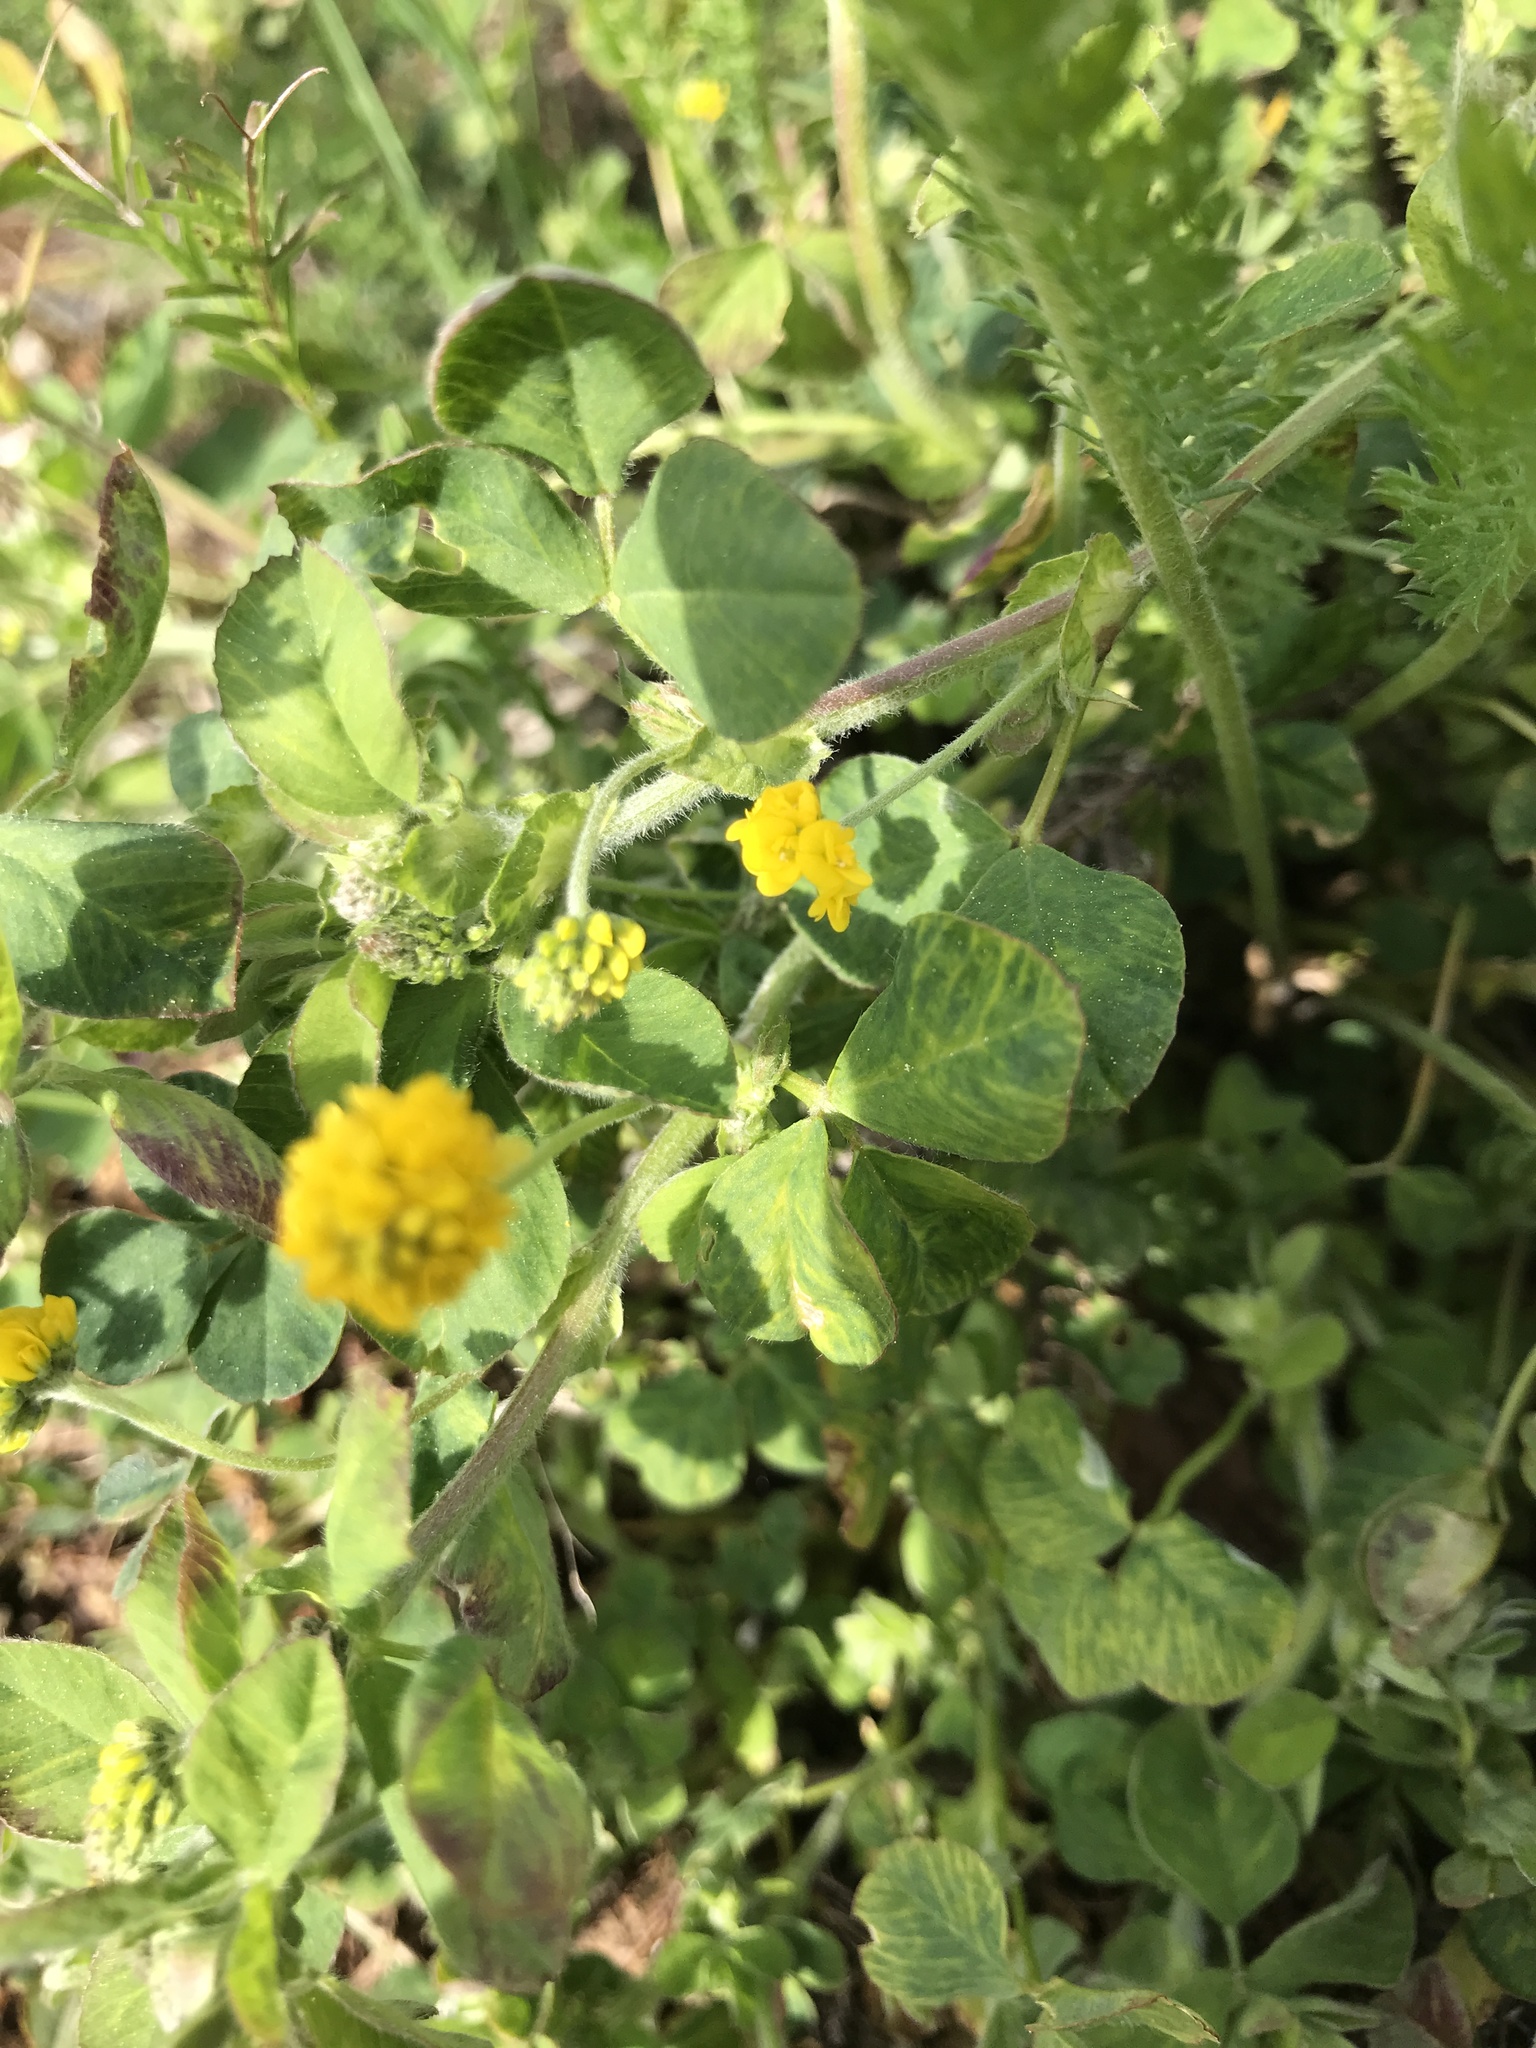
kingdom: Plantae
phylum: Tracheophyta
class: Magnoliopsida
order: Fabales
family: Fabaceae
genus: Medicago
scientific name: Medicago lupulina
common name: Black medick
